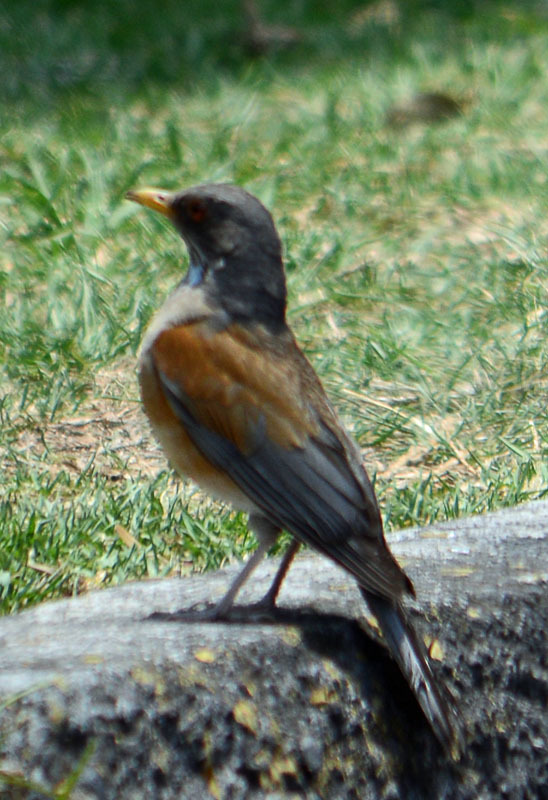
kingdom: Animalia
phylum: Chordata
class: Aves
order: Passeriformes
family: Turdidae
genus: Turdus
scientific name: Turdus rufopalliatus
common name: Rufous-backed robin
